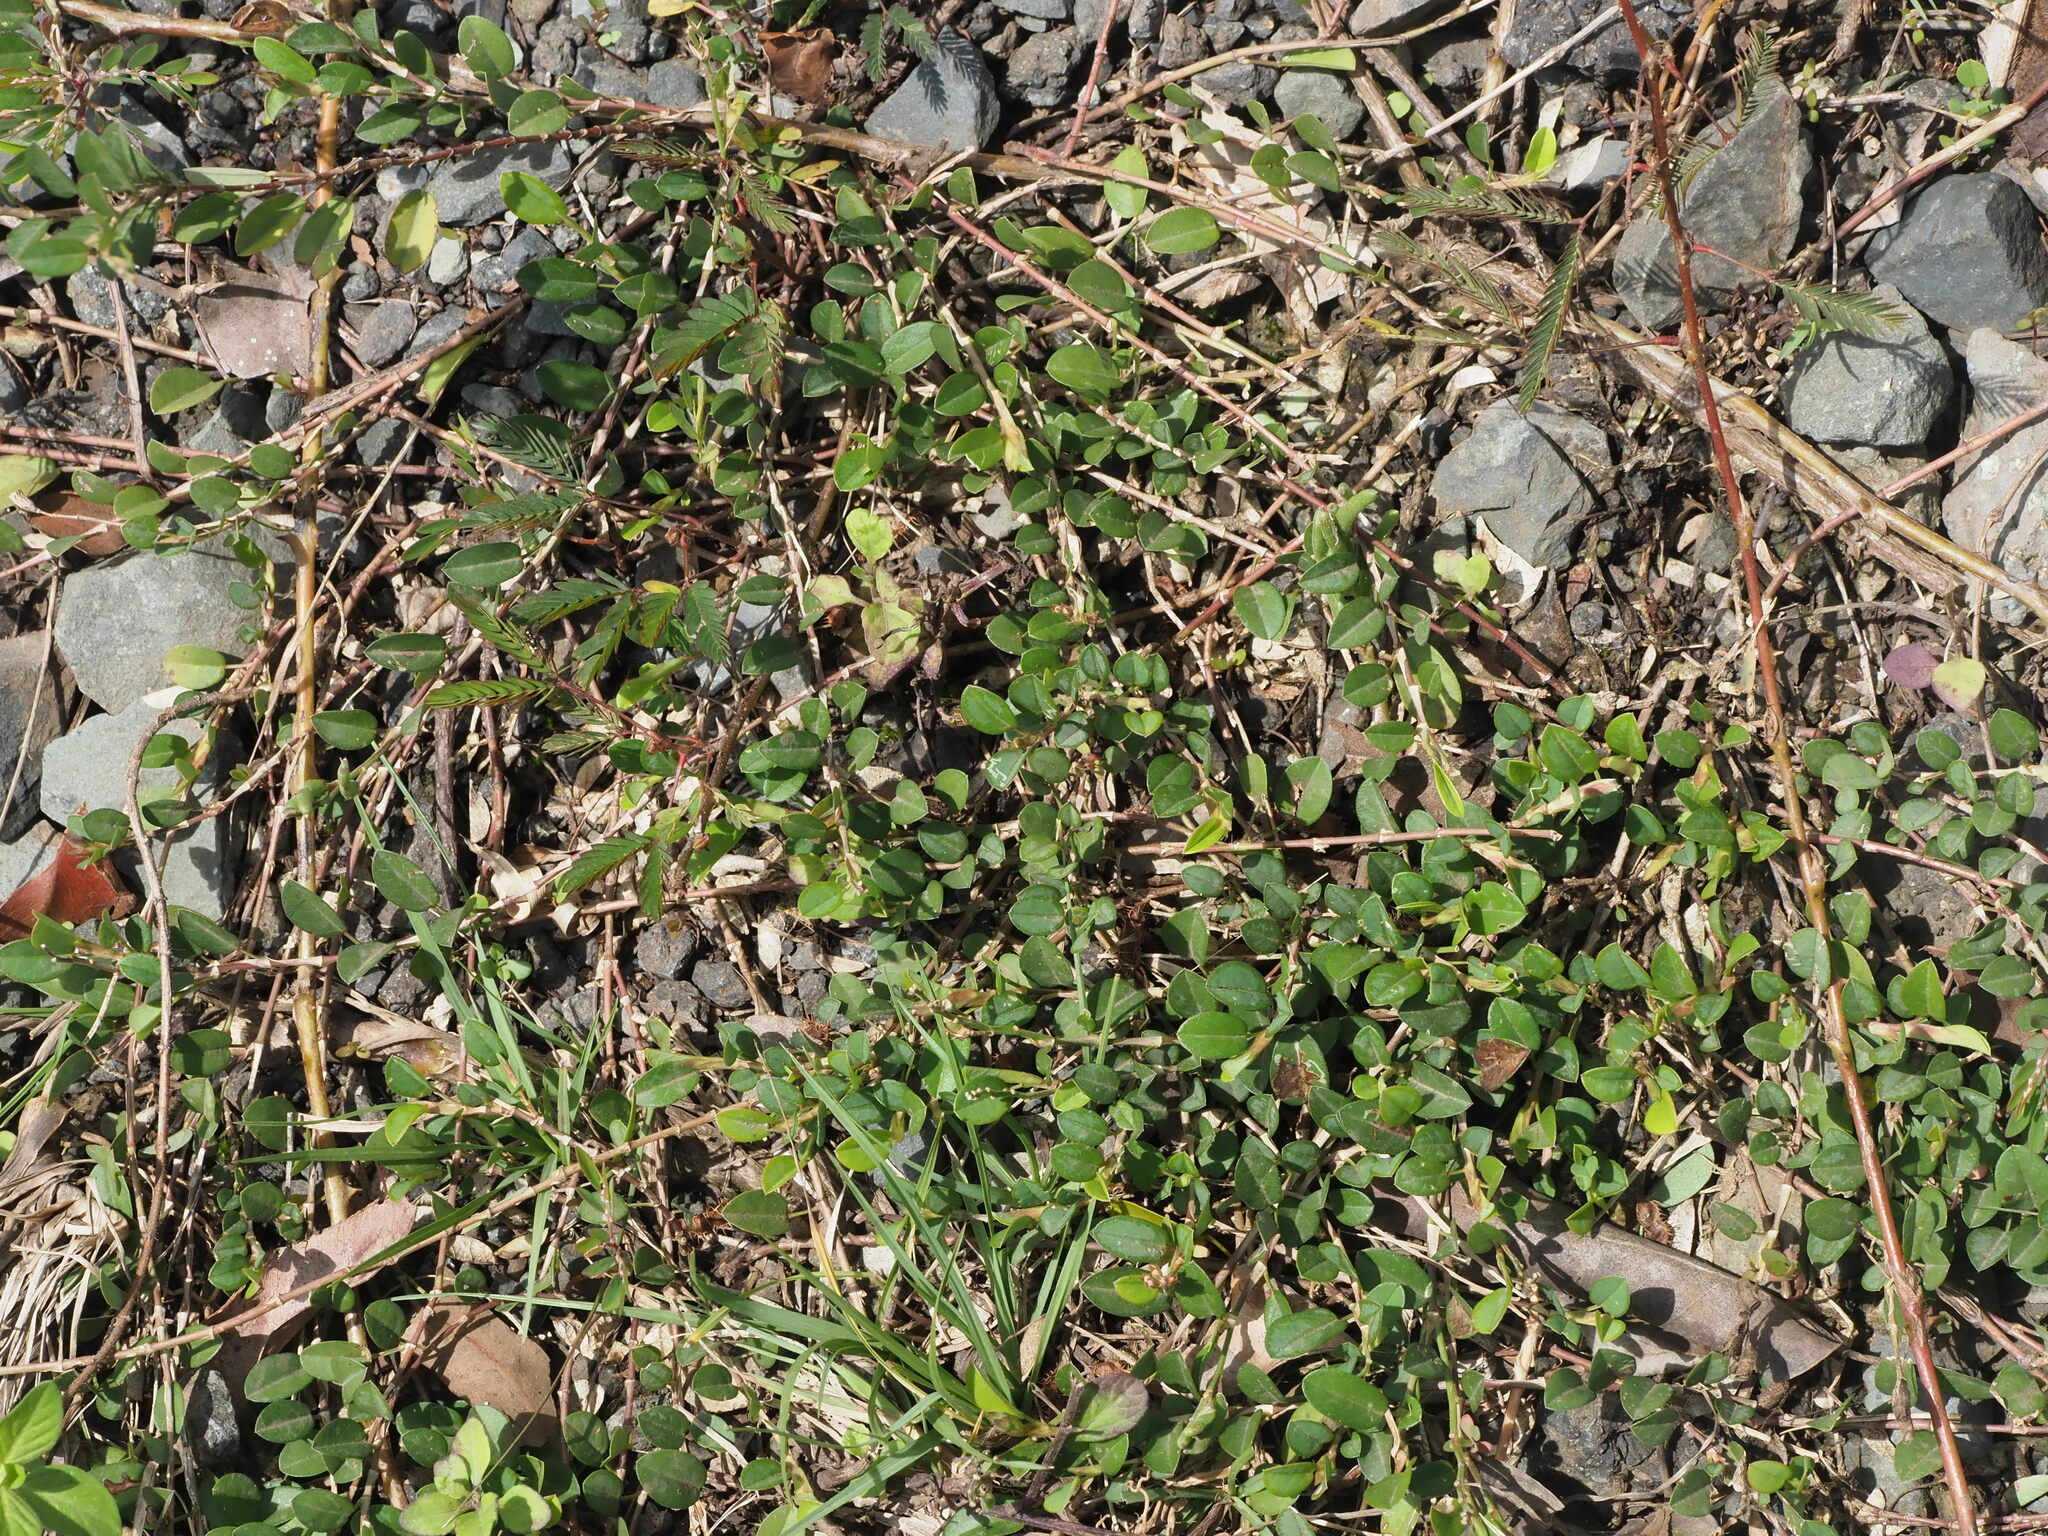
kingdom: Plantae
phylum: Tracheophyta
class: Magnoliopsida
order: Fabales
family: Fabaceae
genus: Alysicarpus
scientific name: Alysicarpus vaginalis
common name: White moneywort
